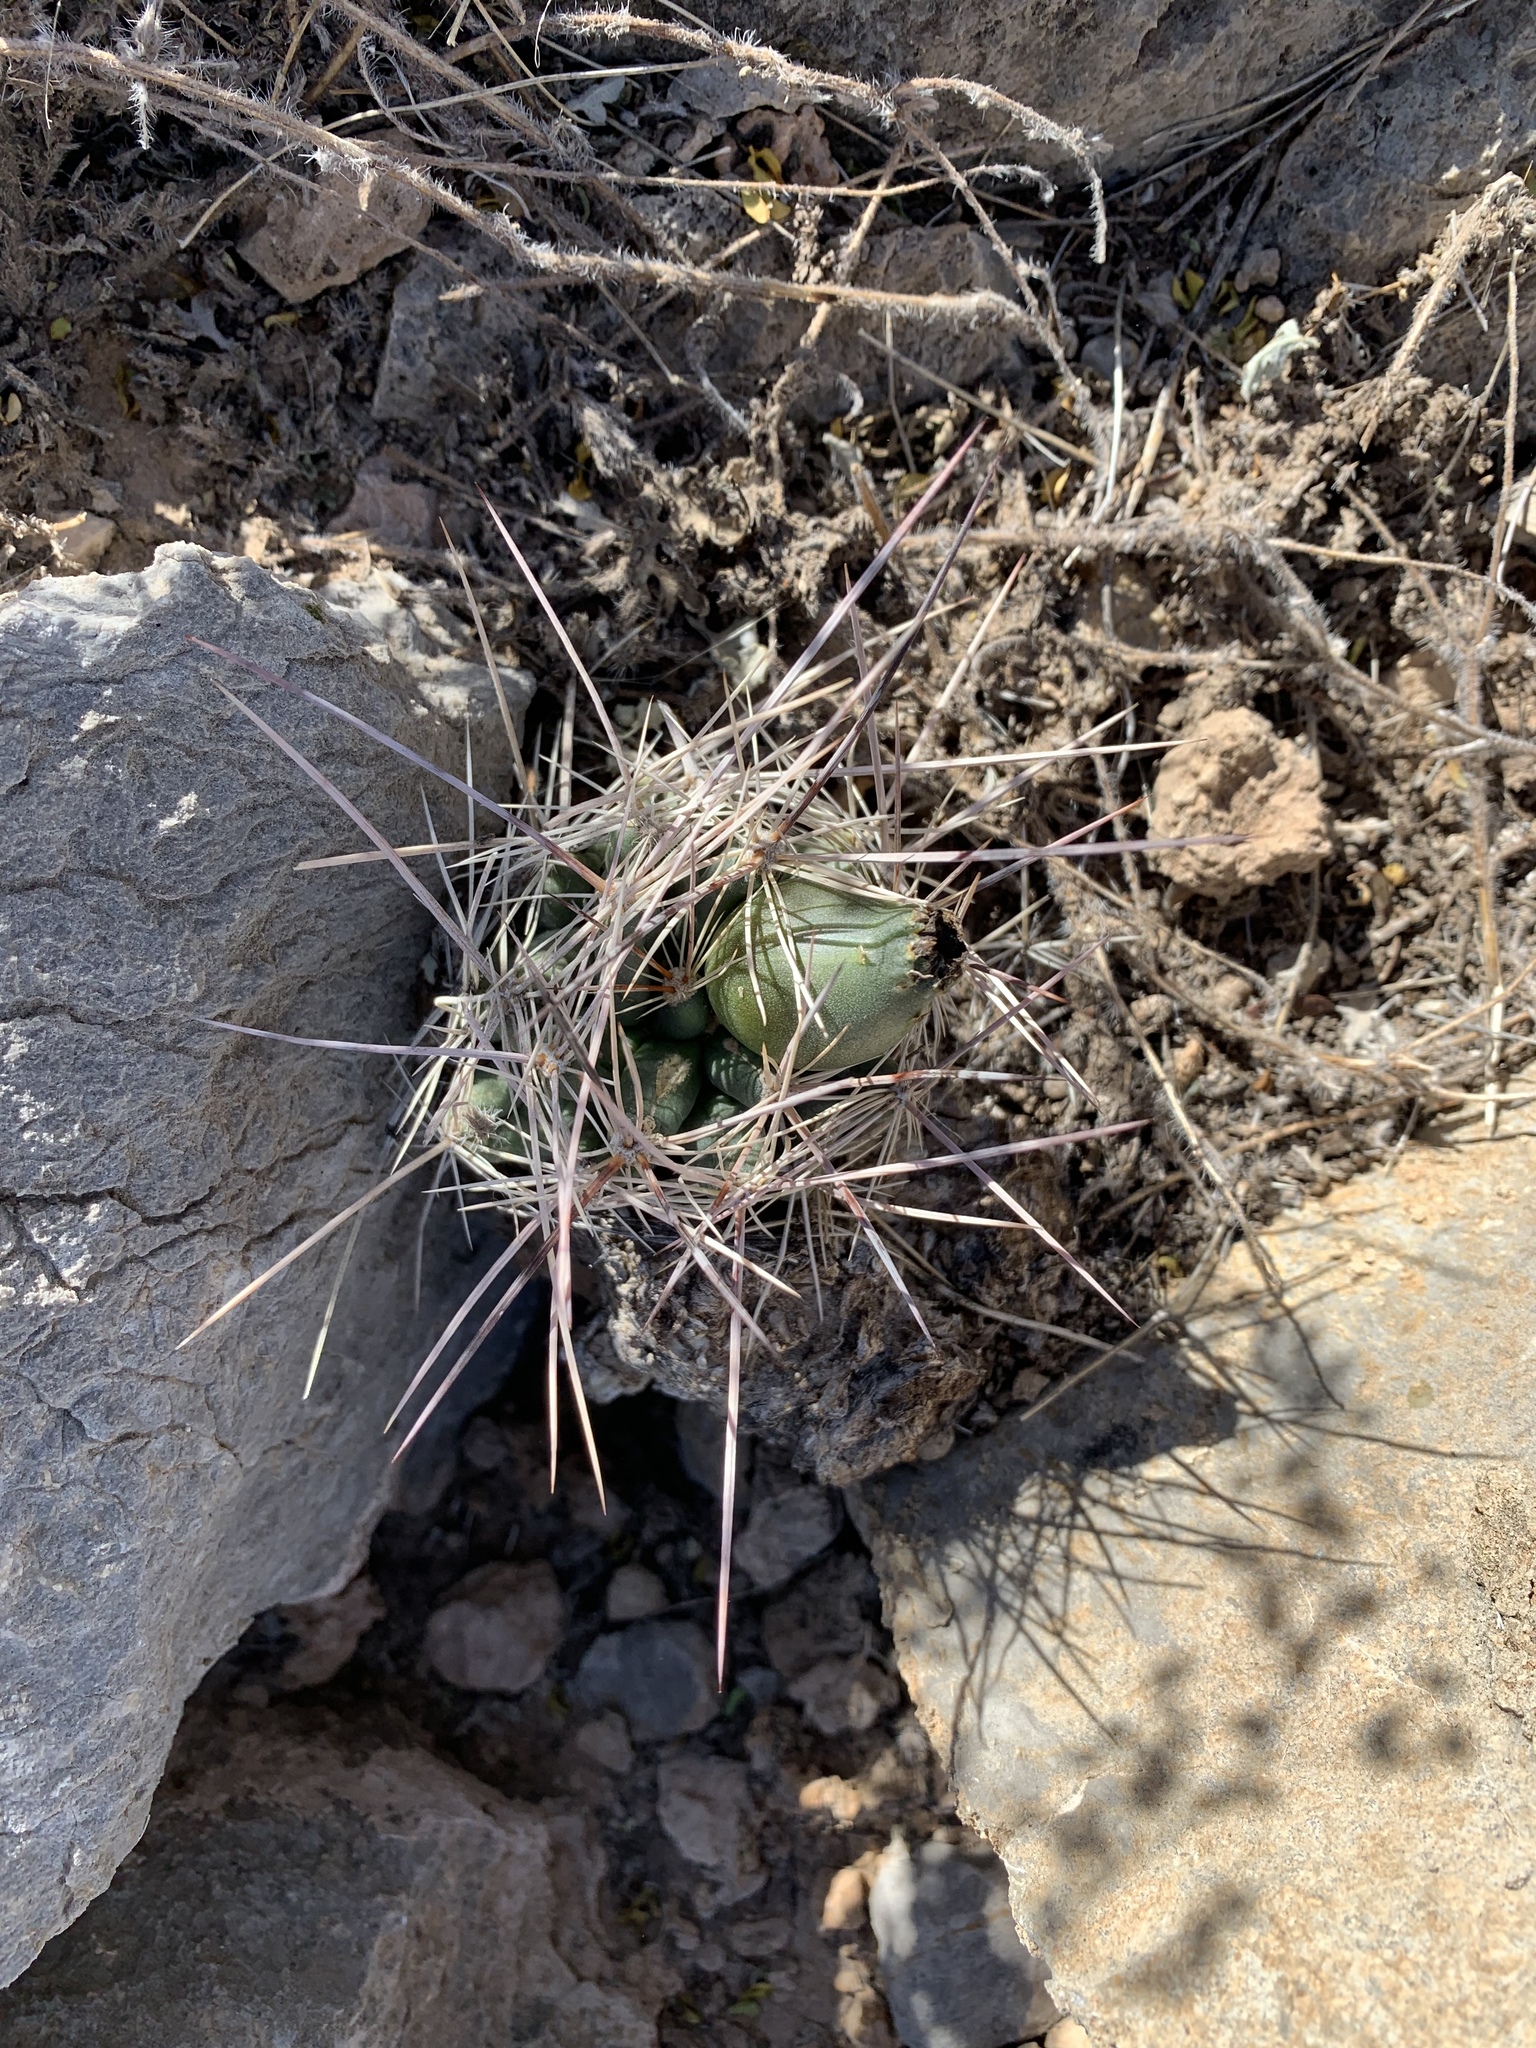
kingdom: Plantae
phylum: Tracheophyta
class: Magnoliopsida
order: Caryophyllales
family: Cactaceae
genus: Coryphantha
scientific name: Coryphantha macromeris
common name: Nipple beehive cactus
